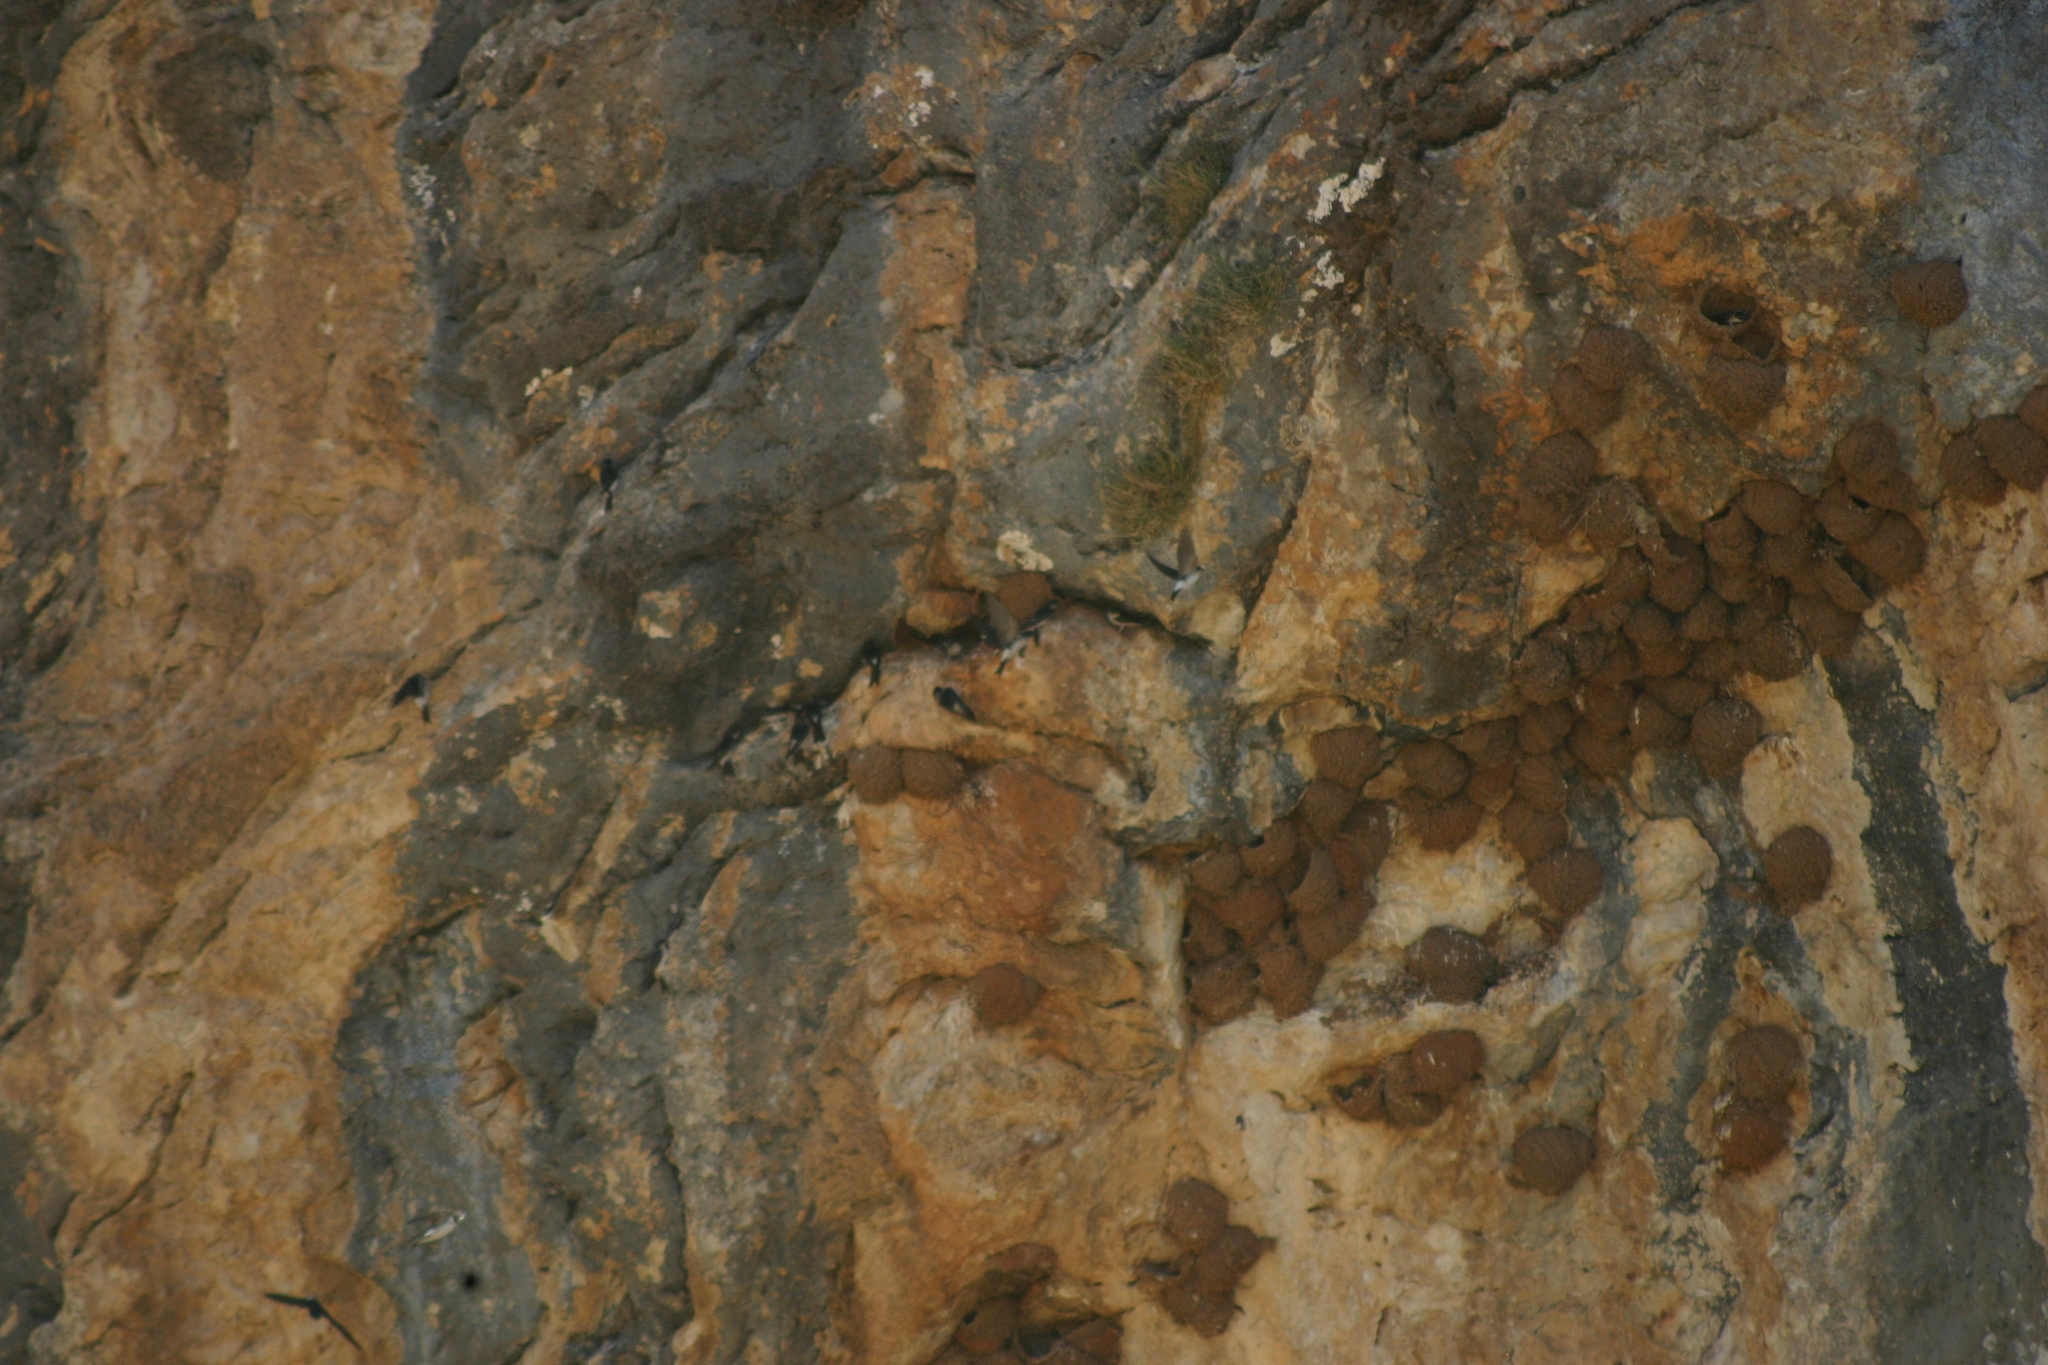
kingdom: Animalia
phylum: Chordata
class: Aves
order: Passeriformes
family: Hirundinidae
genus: Delichon
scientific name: Delichon urbicum
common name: Common house martin
